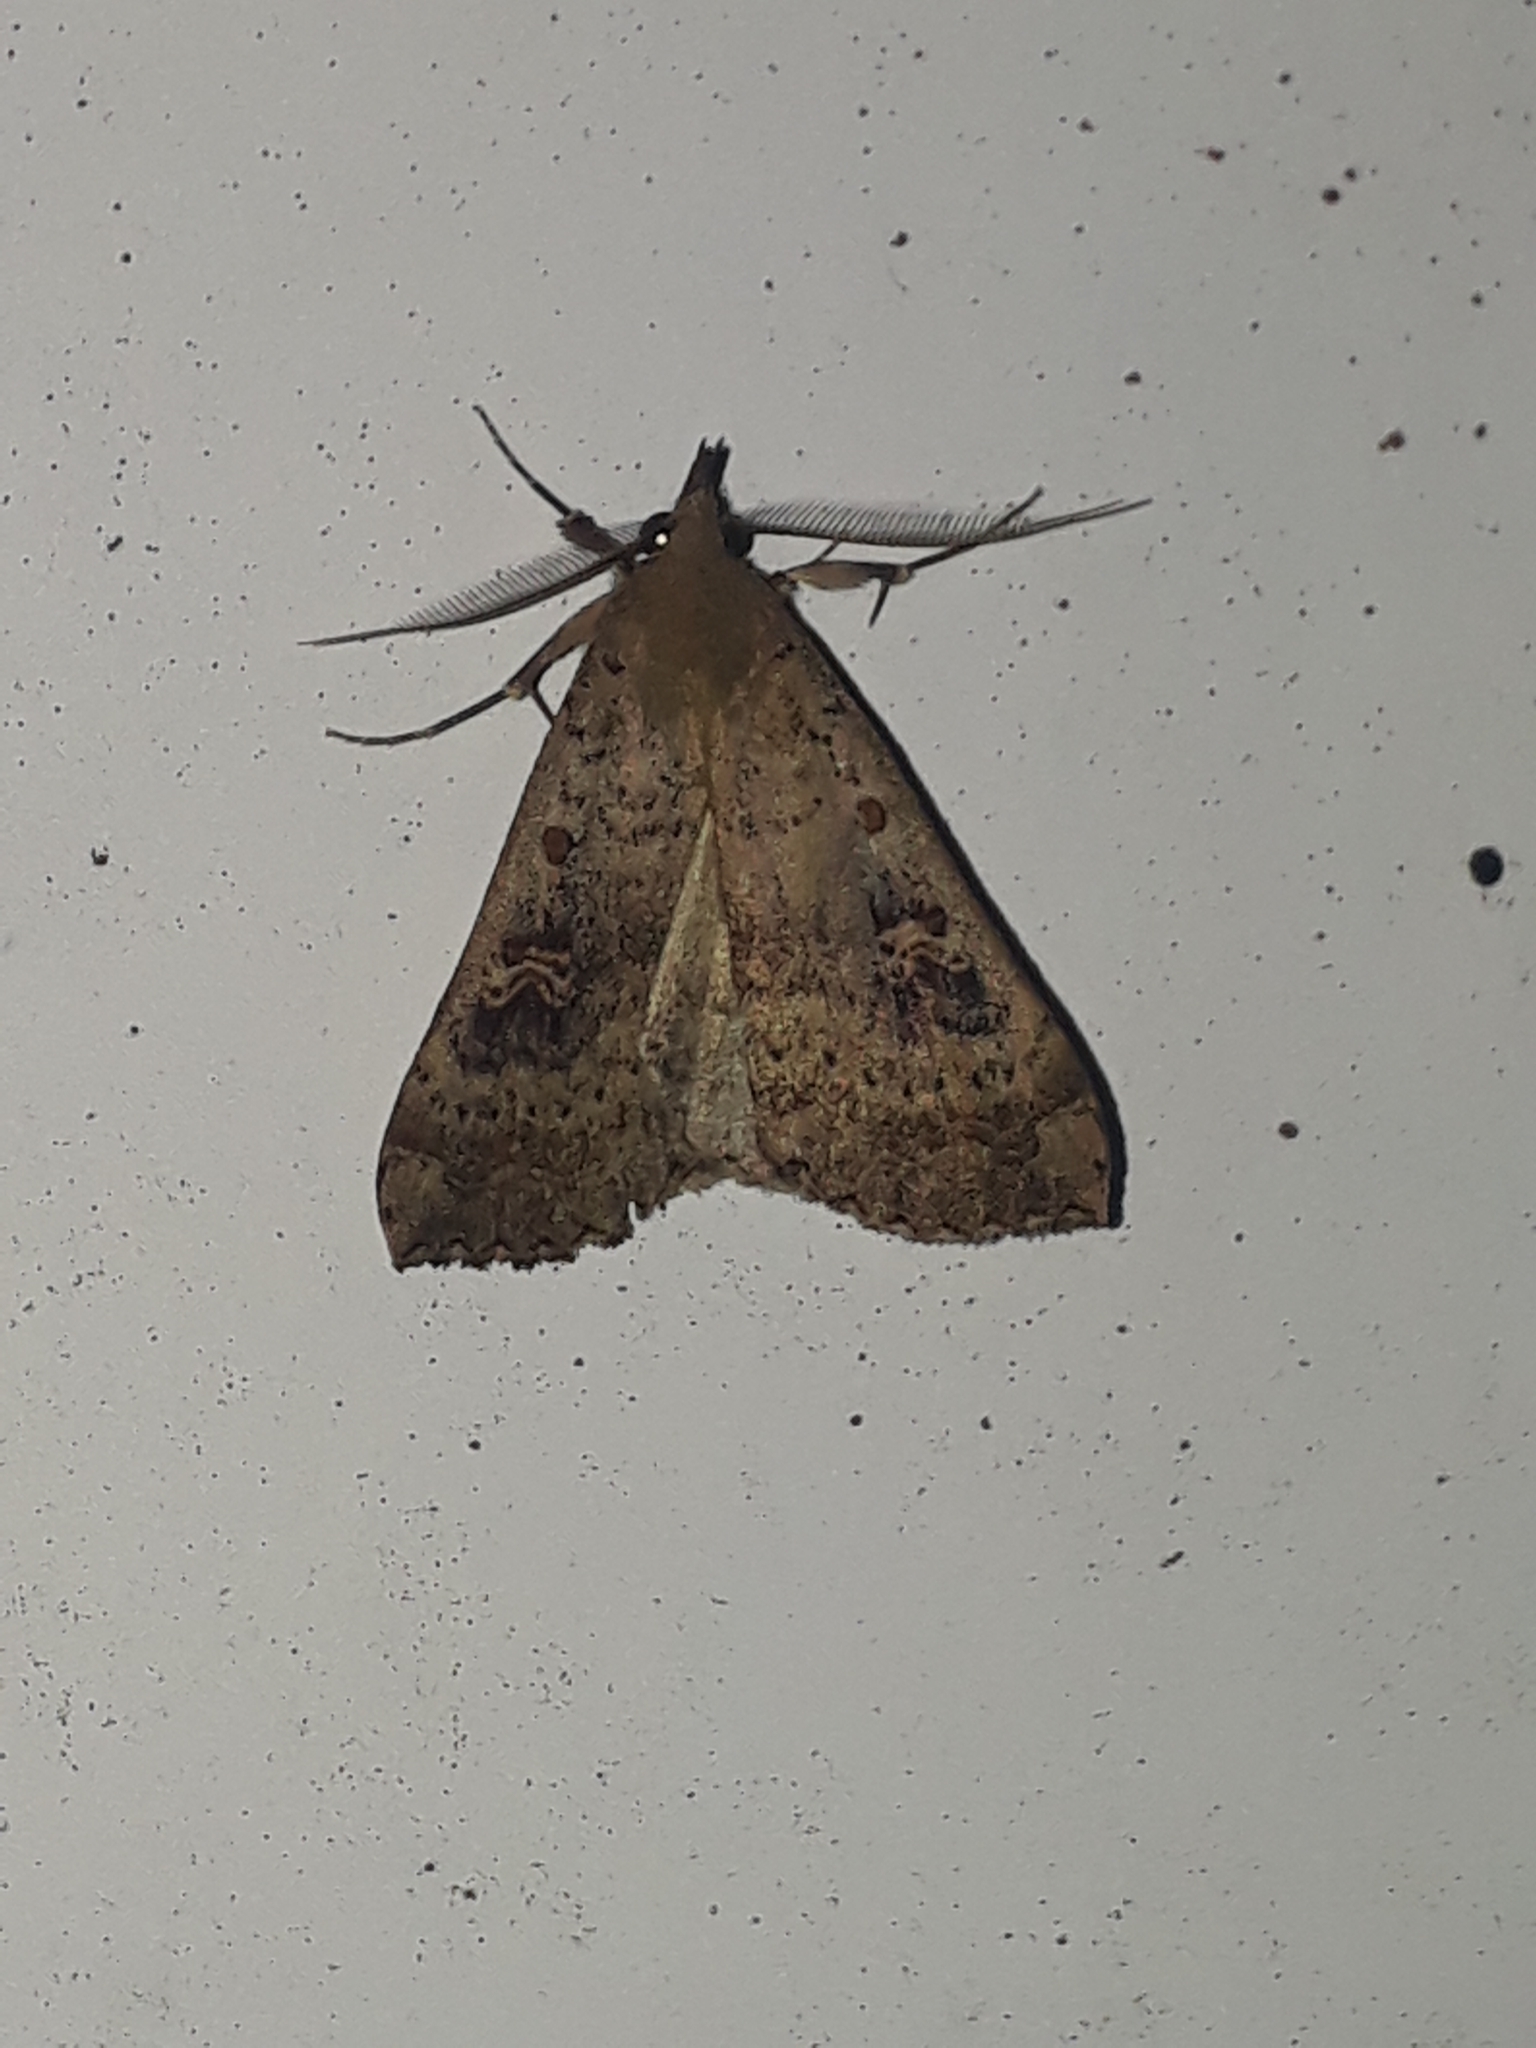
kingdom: Animalia
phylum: Arthropoda
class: Insecta
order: Lepidoptera
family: Erebidae
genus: Rhapsa
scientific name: Rhapsa scotosialis
